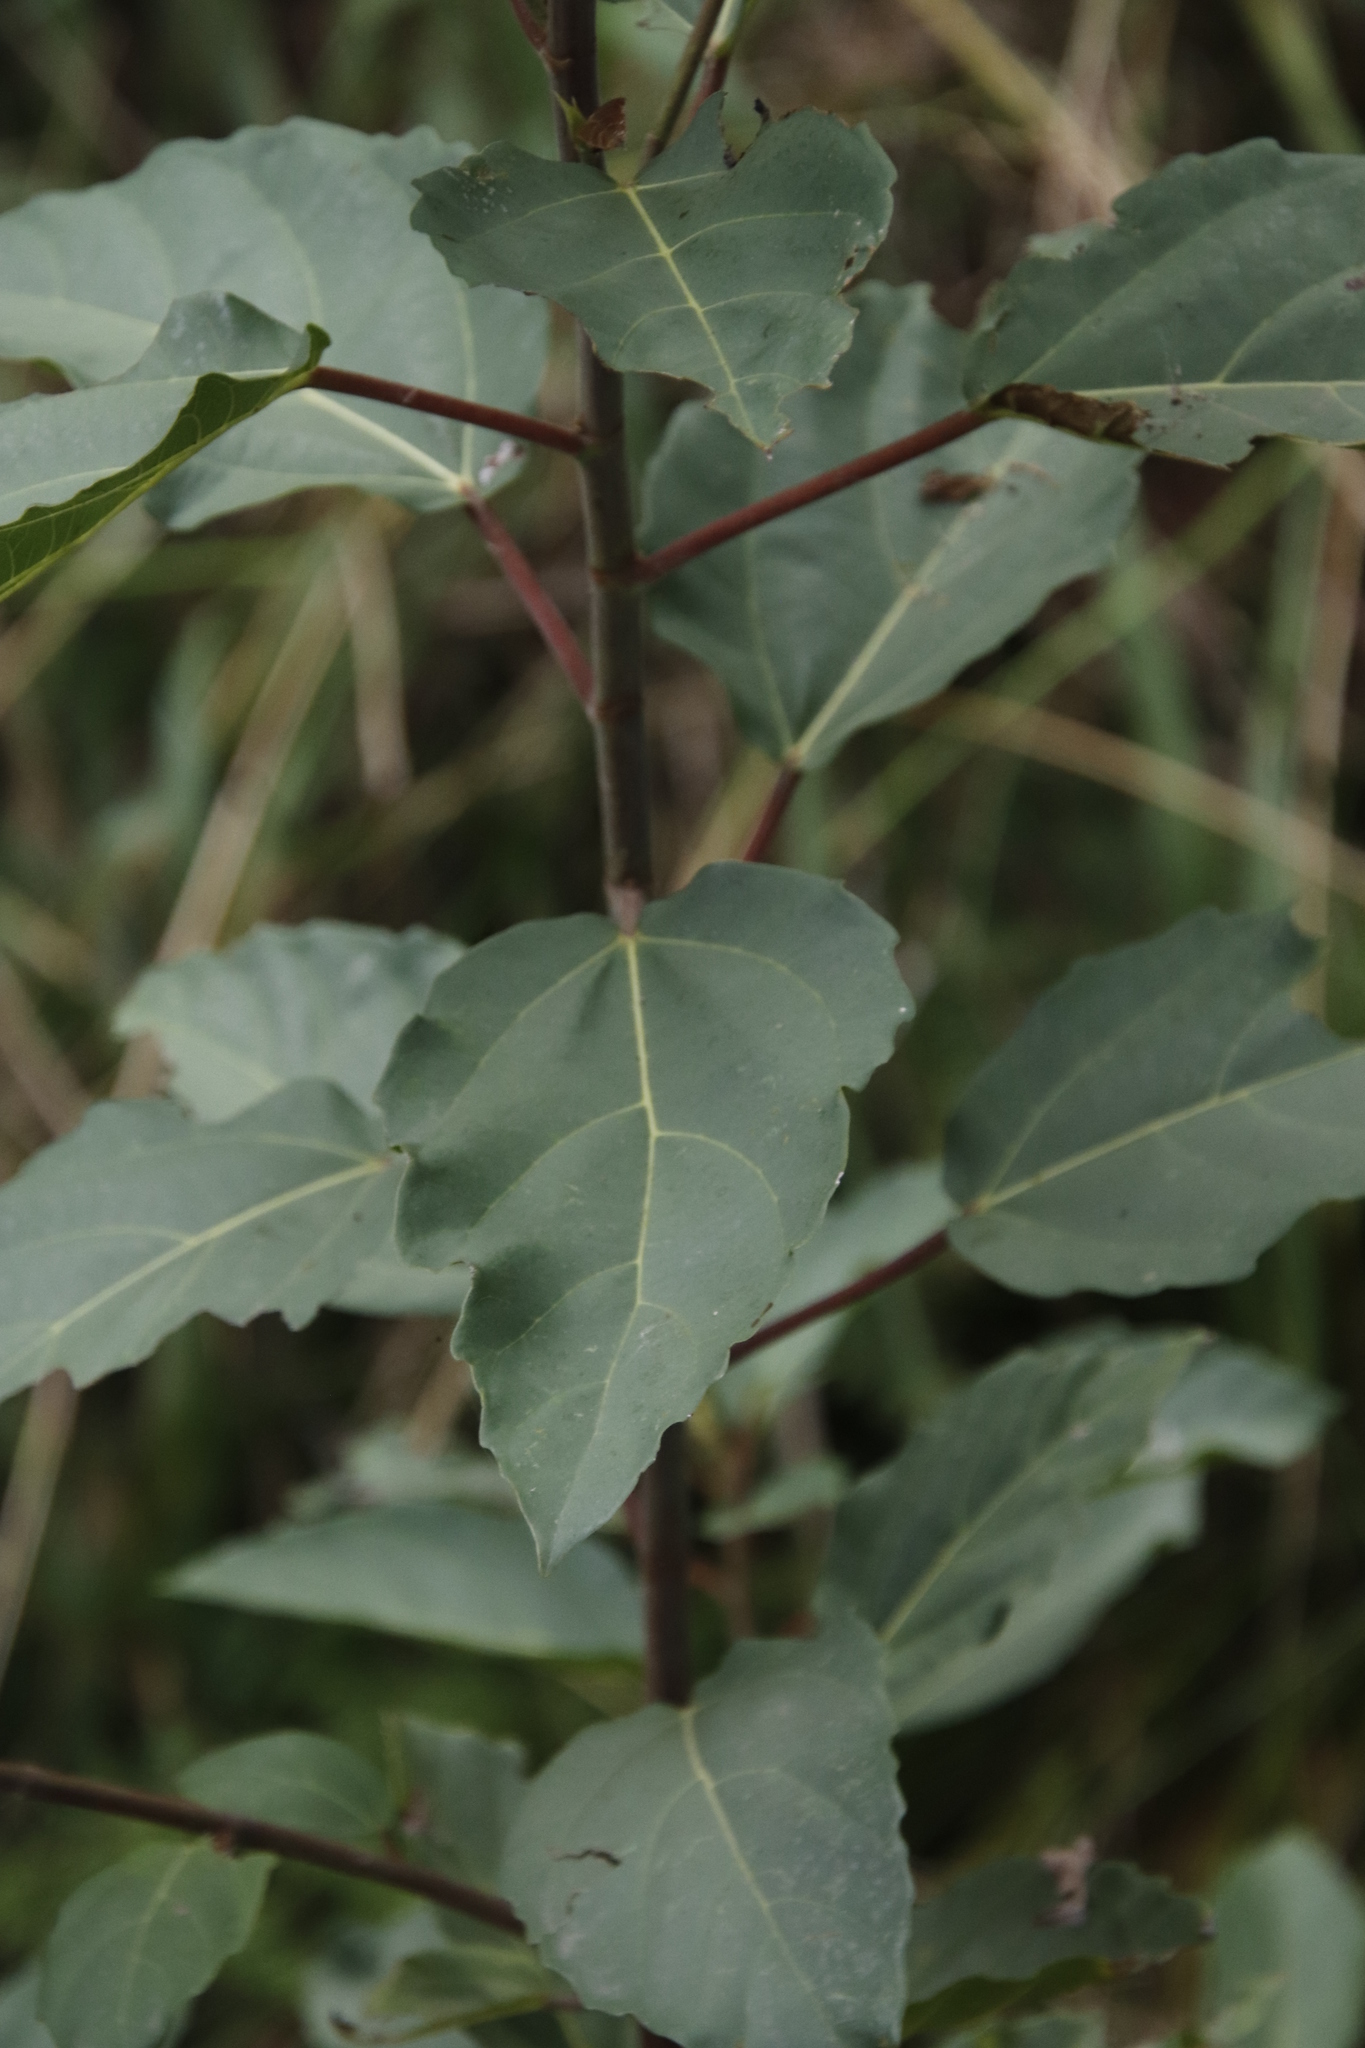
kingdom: Plantae
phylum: Tracheophyta
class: Magnoliopsida
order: Rosales
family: Moraceae
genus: Ficus
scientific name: Ficus sur
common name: Cape fig
